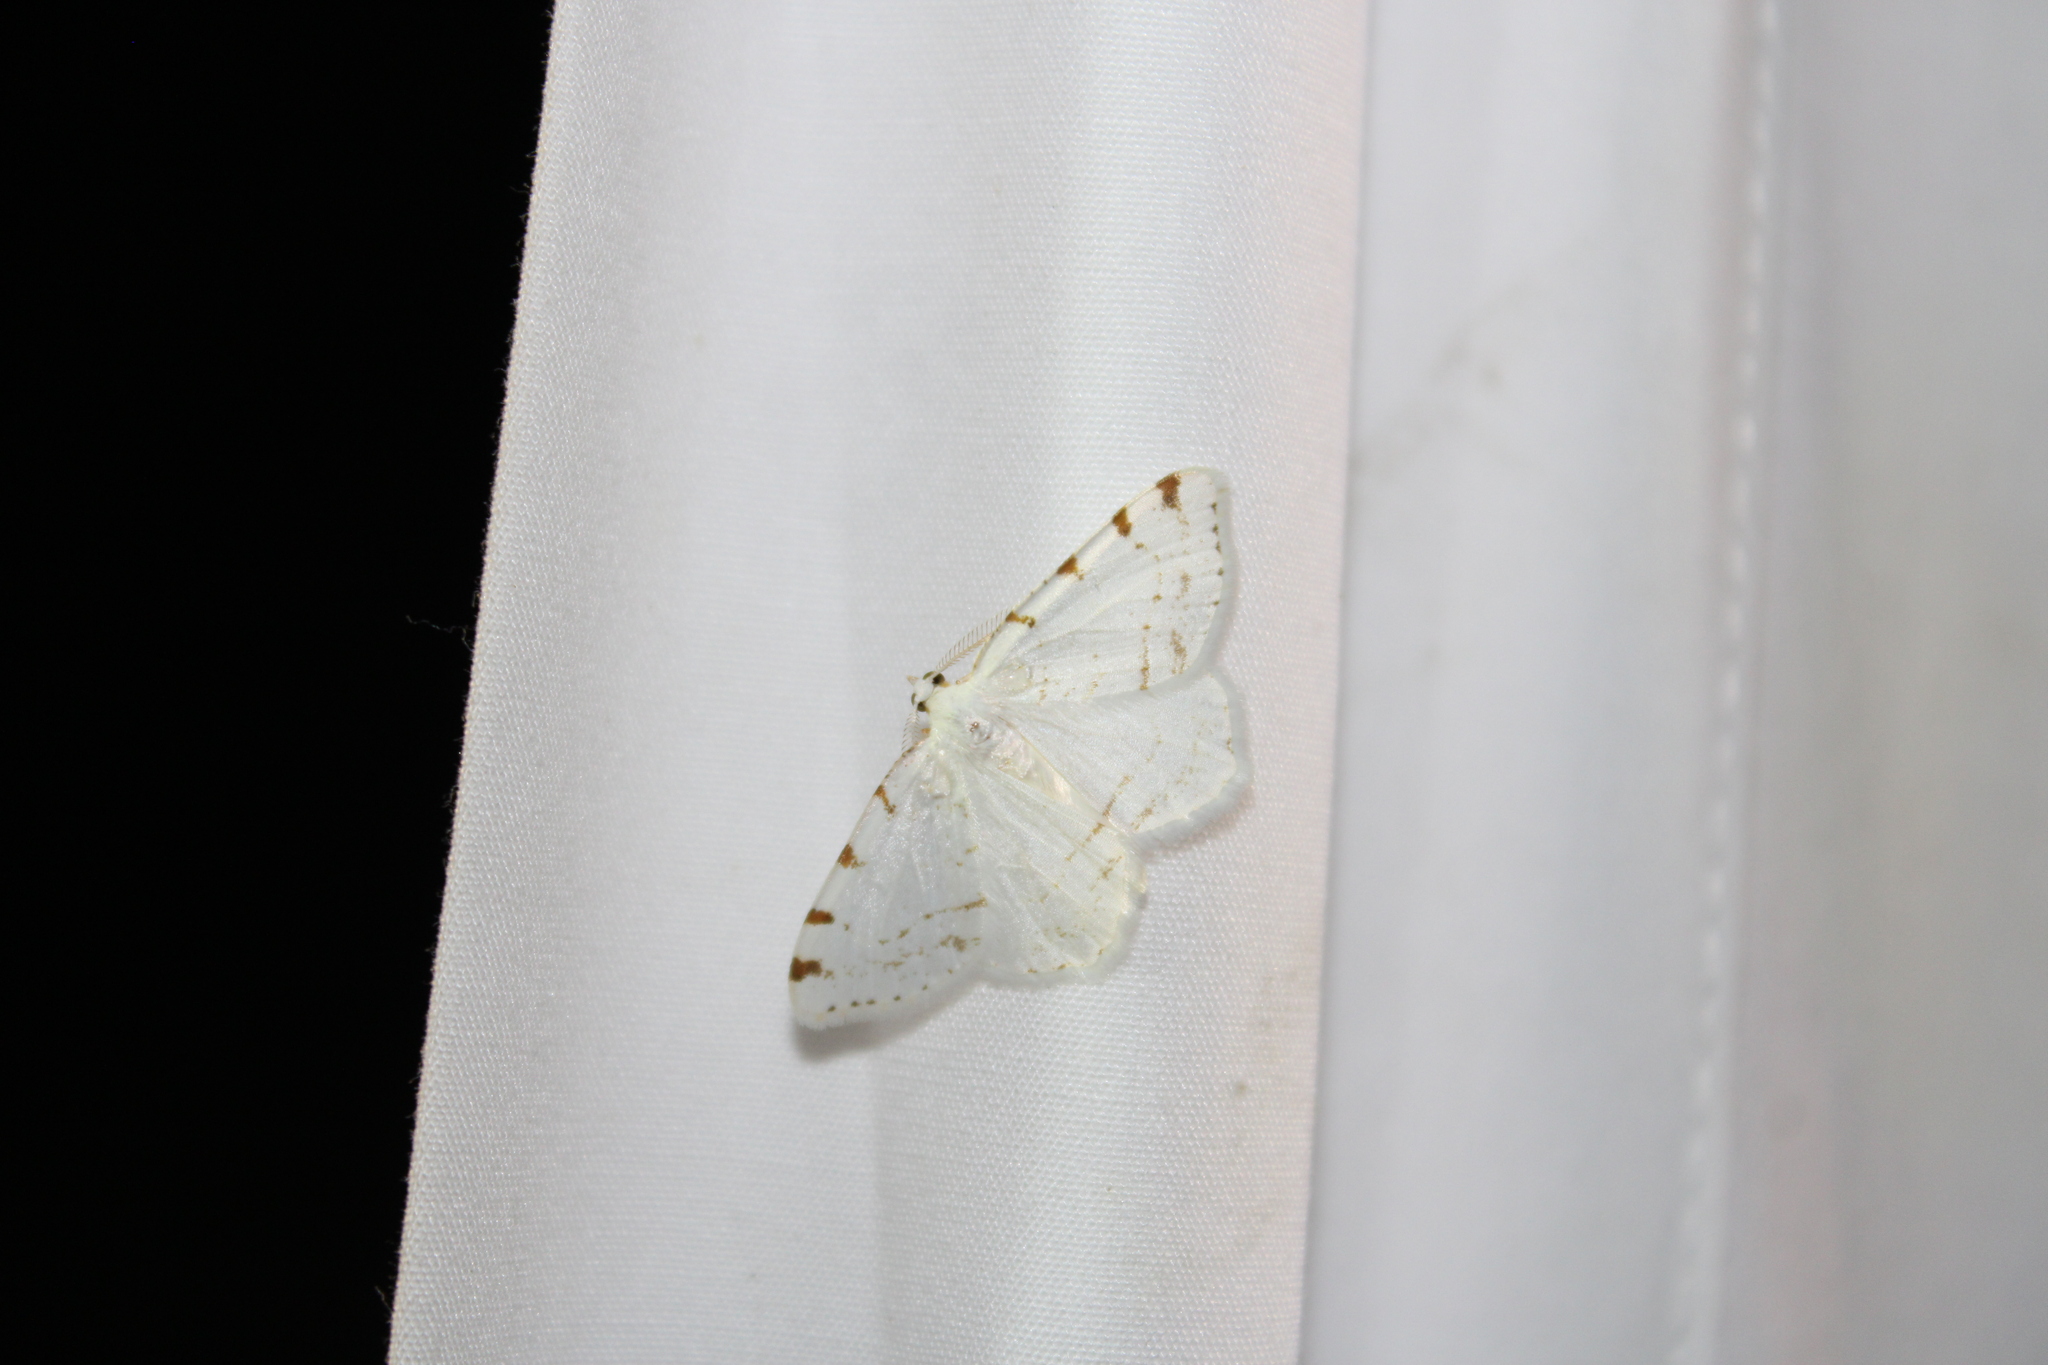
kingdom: Animalia
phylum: Arthropoda
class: Insecta
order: Lepidoptera
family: Geometridae
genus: Macaria
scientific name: Macaria pustularia
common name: Lesser maple spanworm moth
